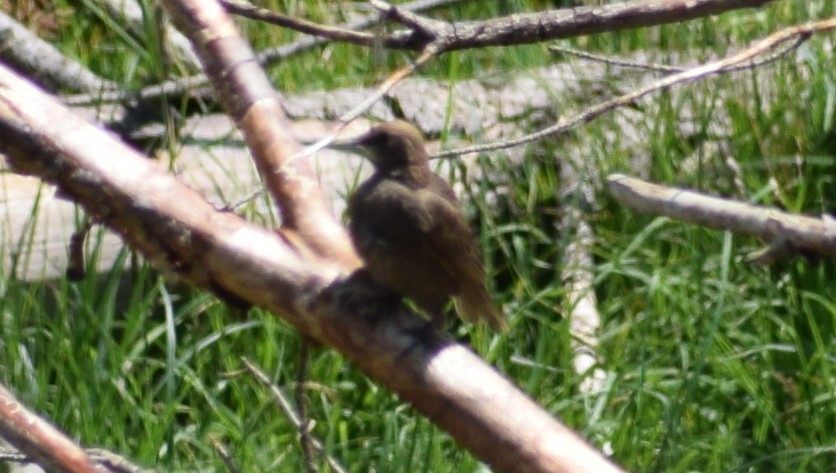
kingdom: Animalia
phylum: Chordata
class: Aves
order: Passeriformes
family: Sturnidae
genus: Sturnus
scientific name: Sturnus vulgaris
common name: Common starling
